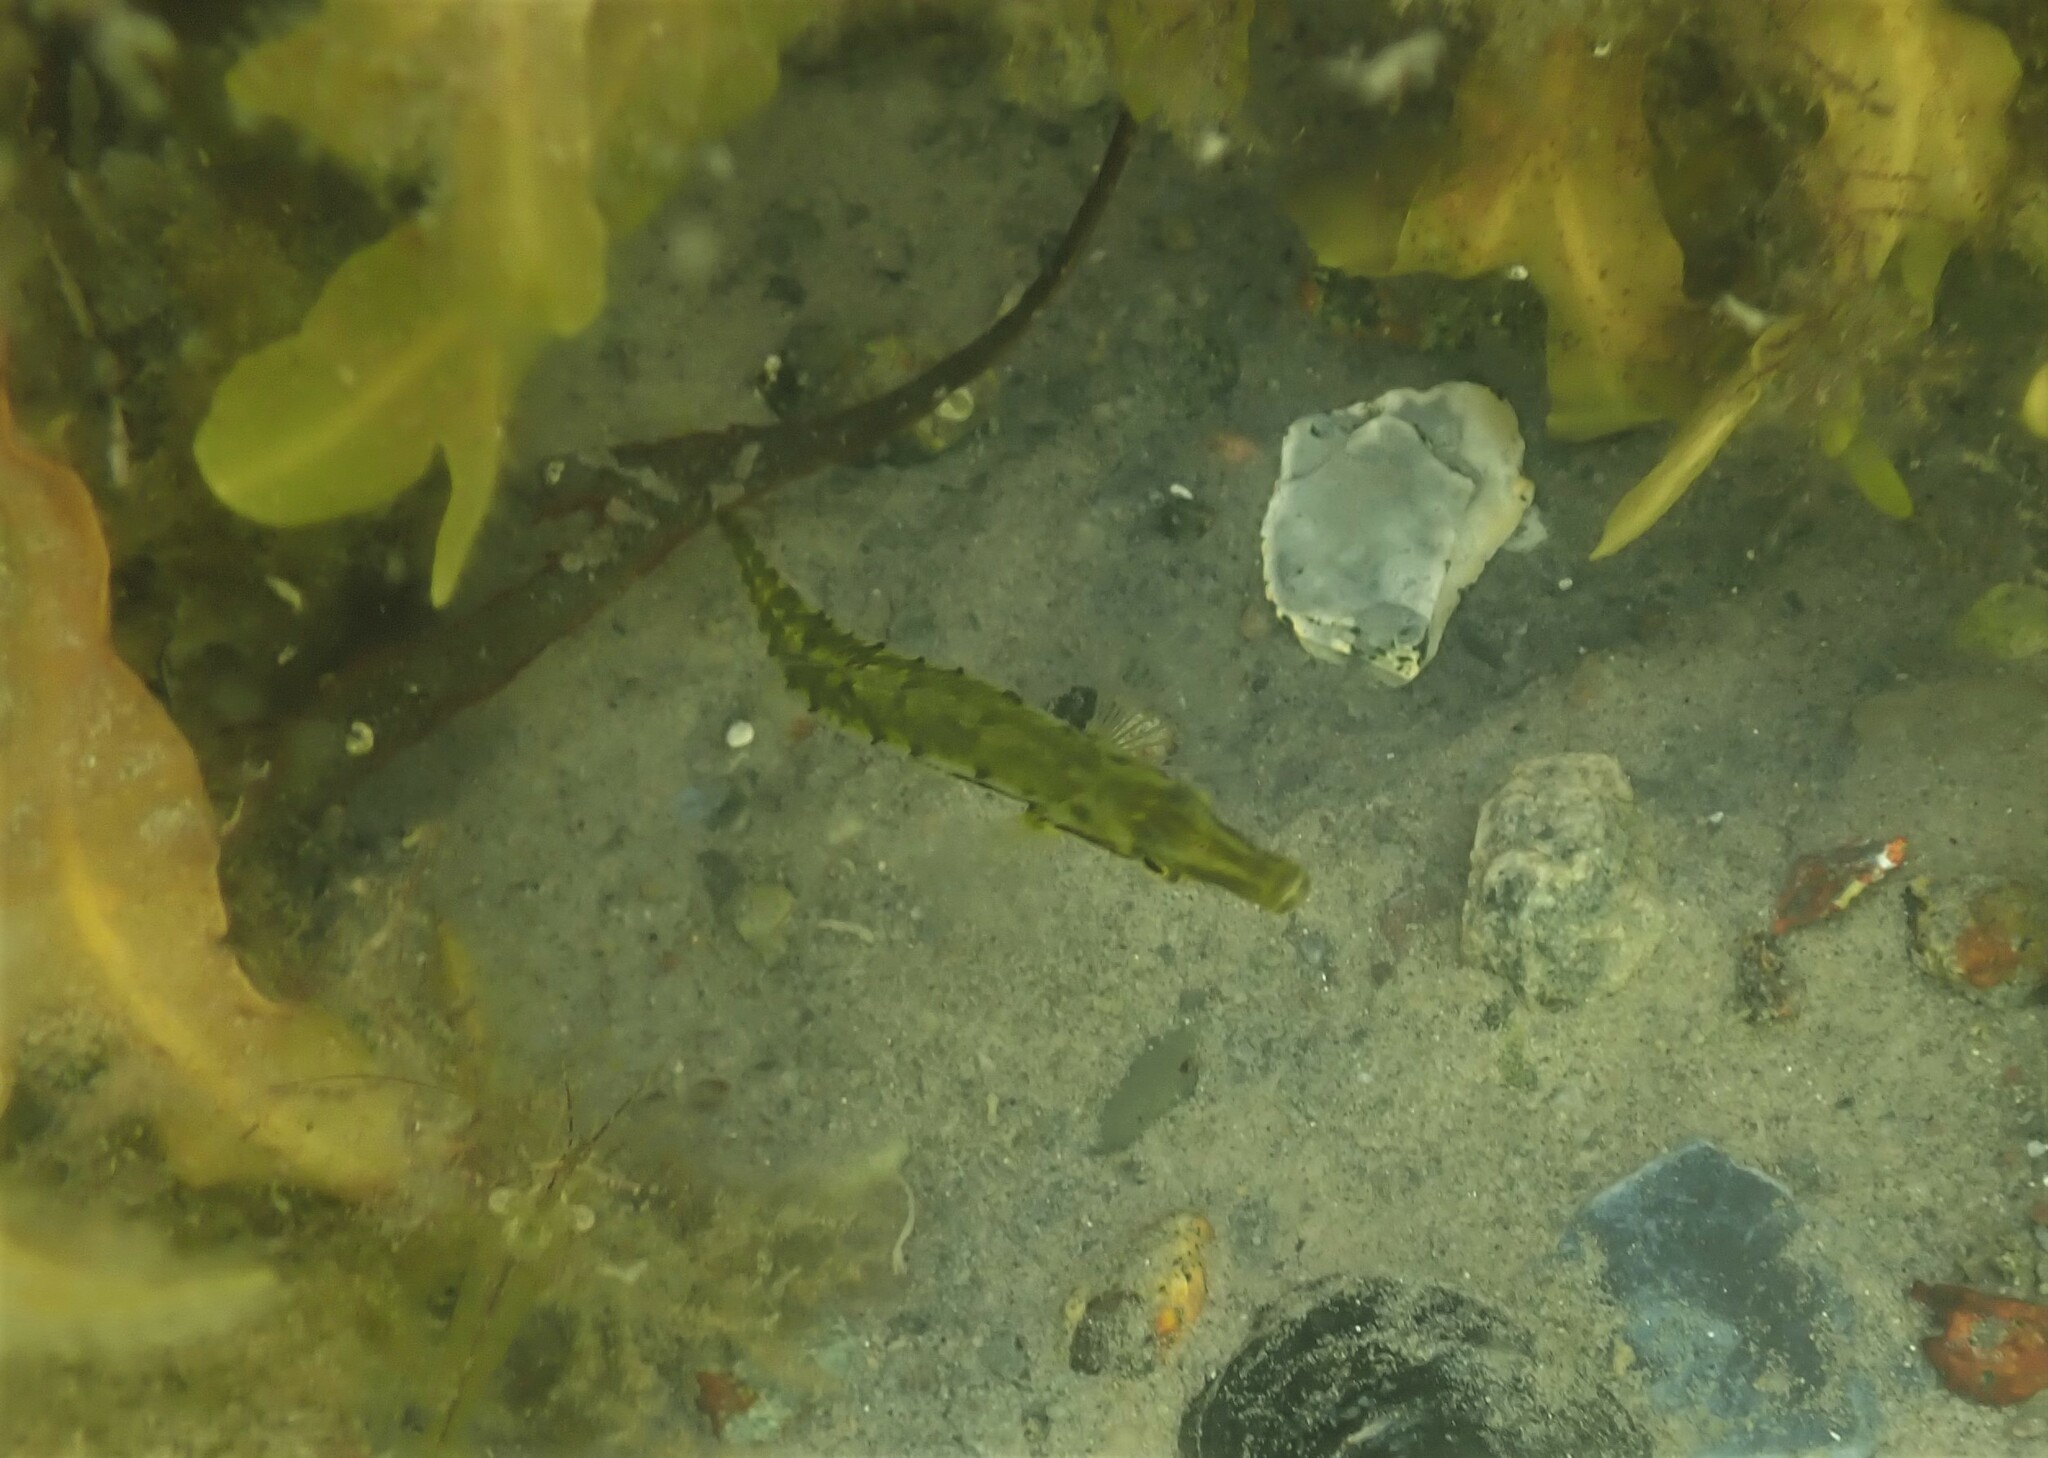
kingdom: Animalia
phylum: Chordata
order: Gasterosteiformes
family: Gasterosteidae
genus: Spinachia
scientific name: Spinachia spinachia
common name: Fifteen-spined stickleback
